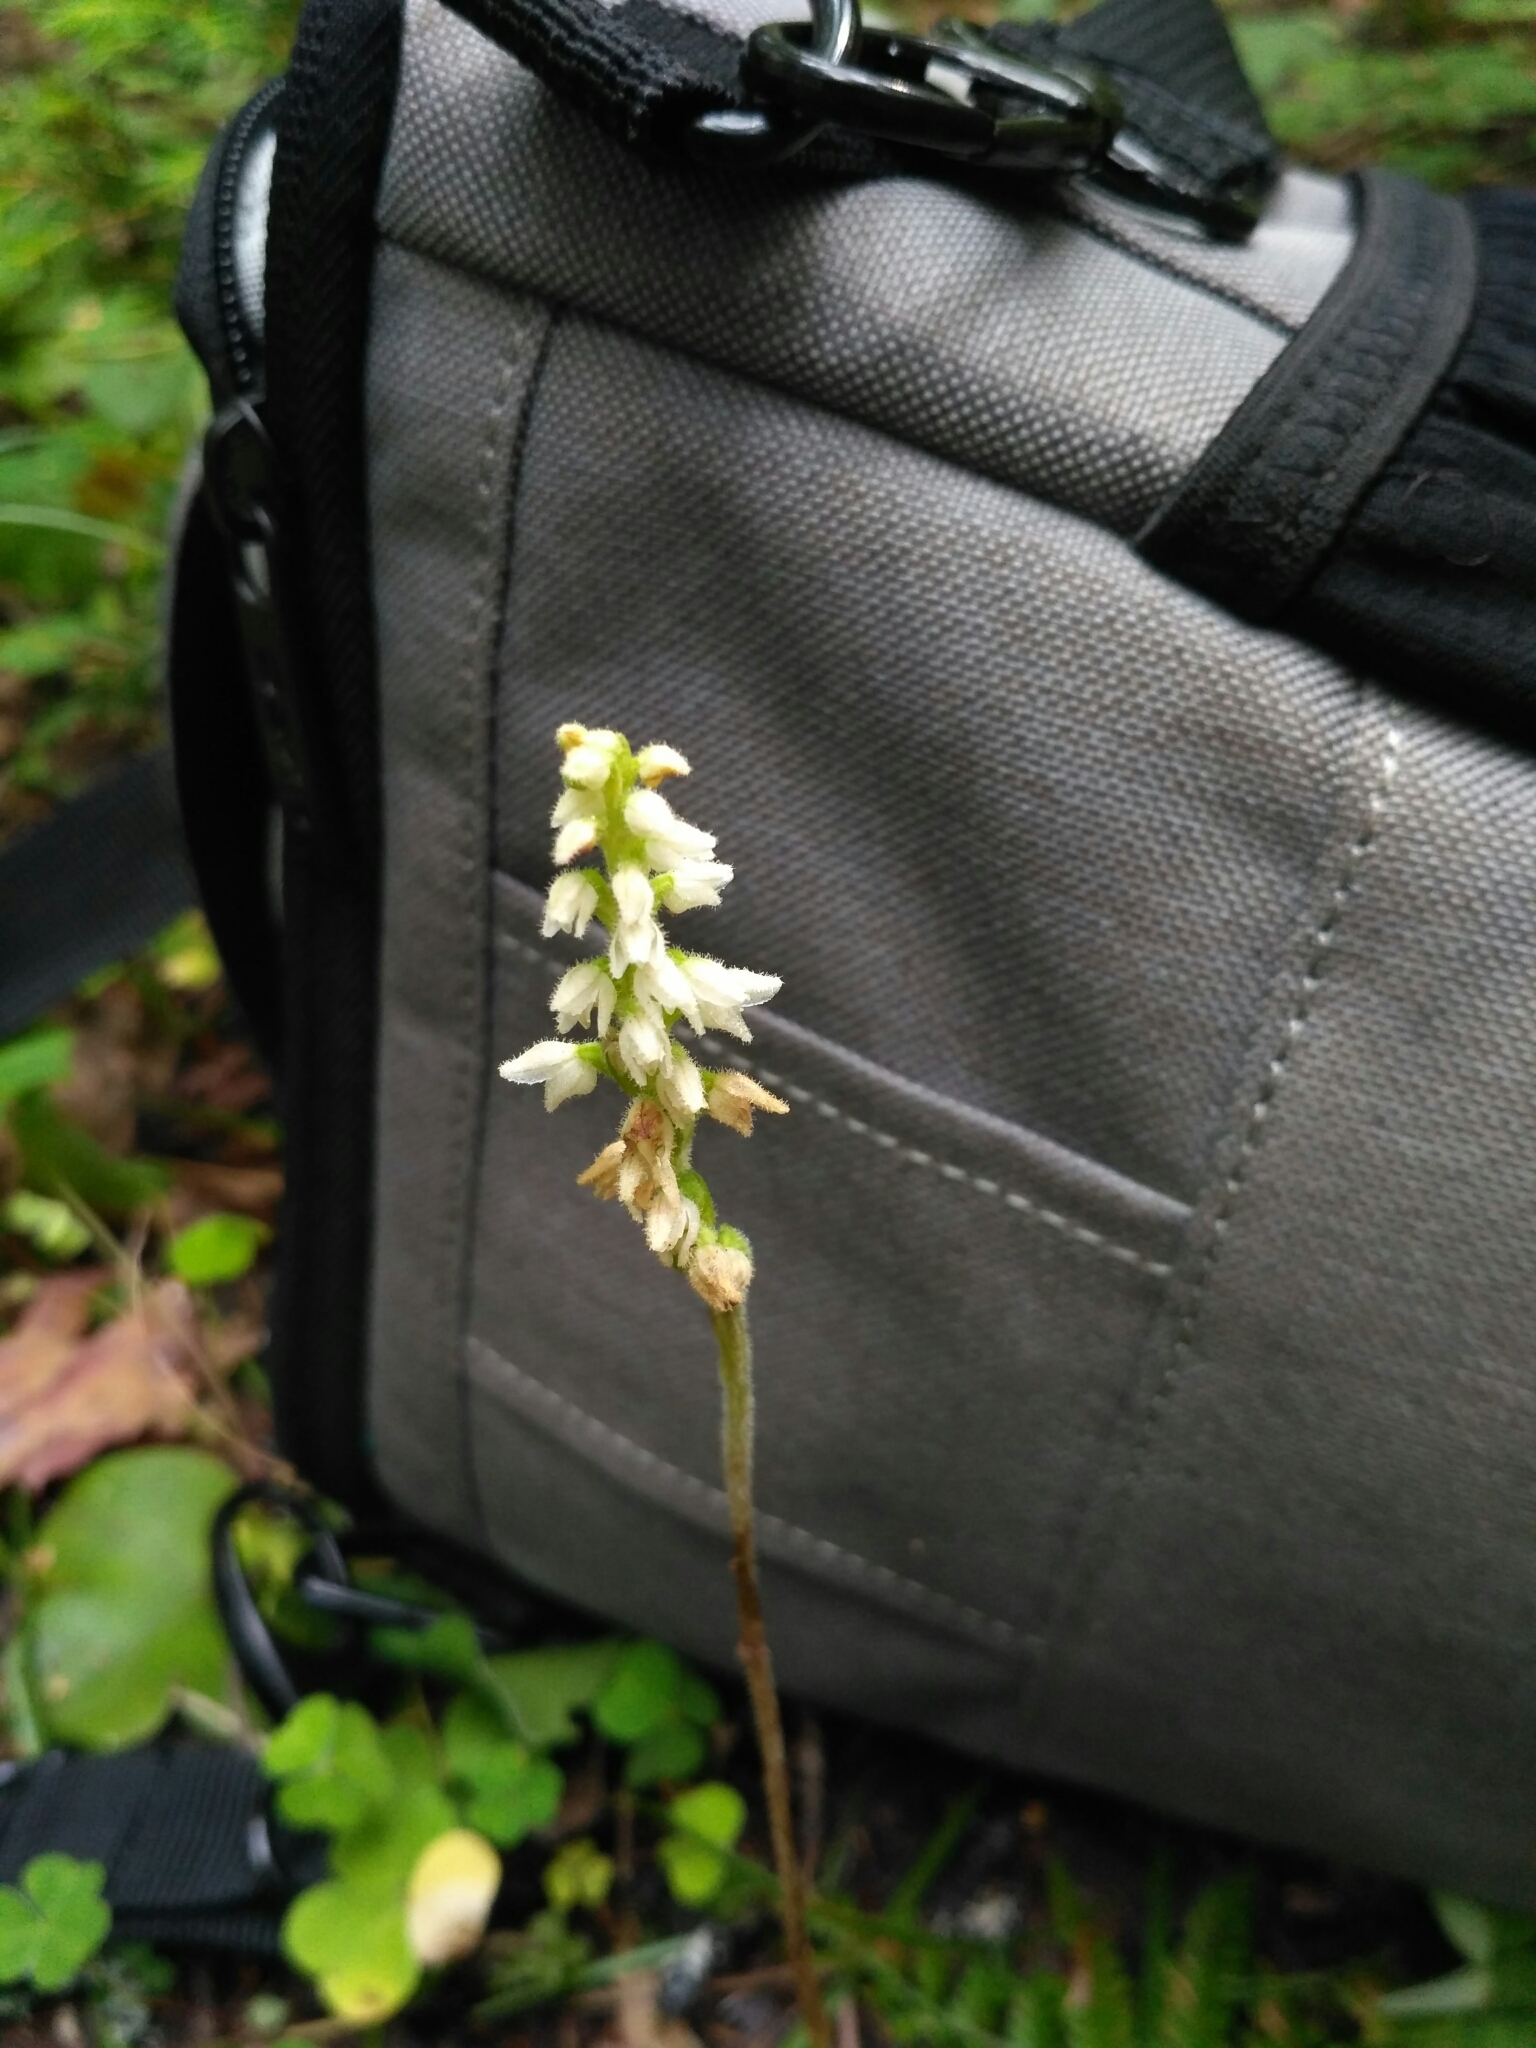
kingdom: Plantae
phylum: Tracheophyta
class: Liliopsida
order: Asparagales
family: Orchidaceae
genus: Goodyera
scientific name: Goodyera repens
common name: Creeping lady's-tresses
